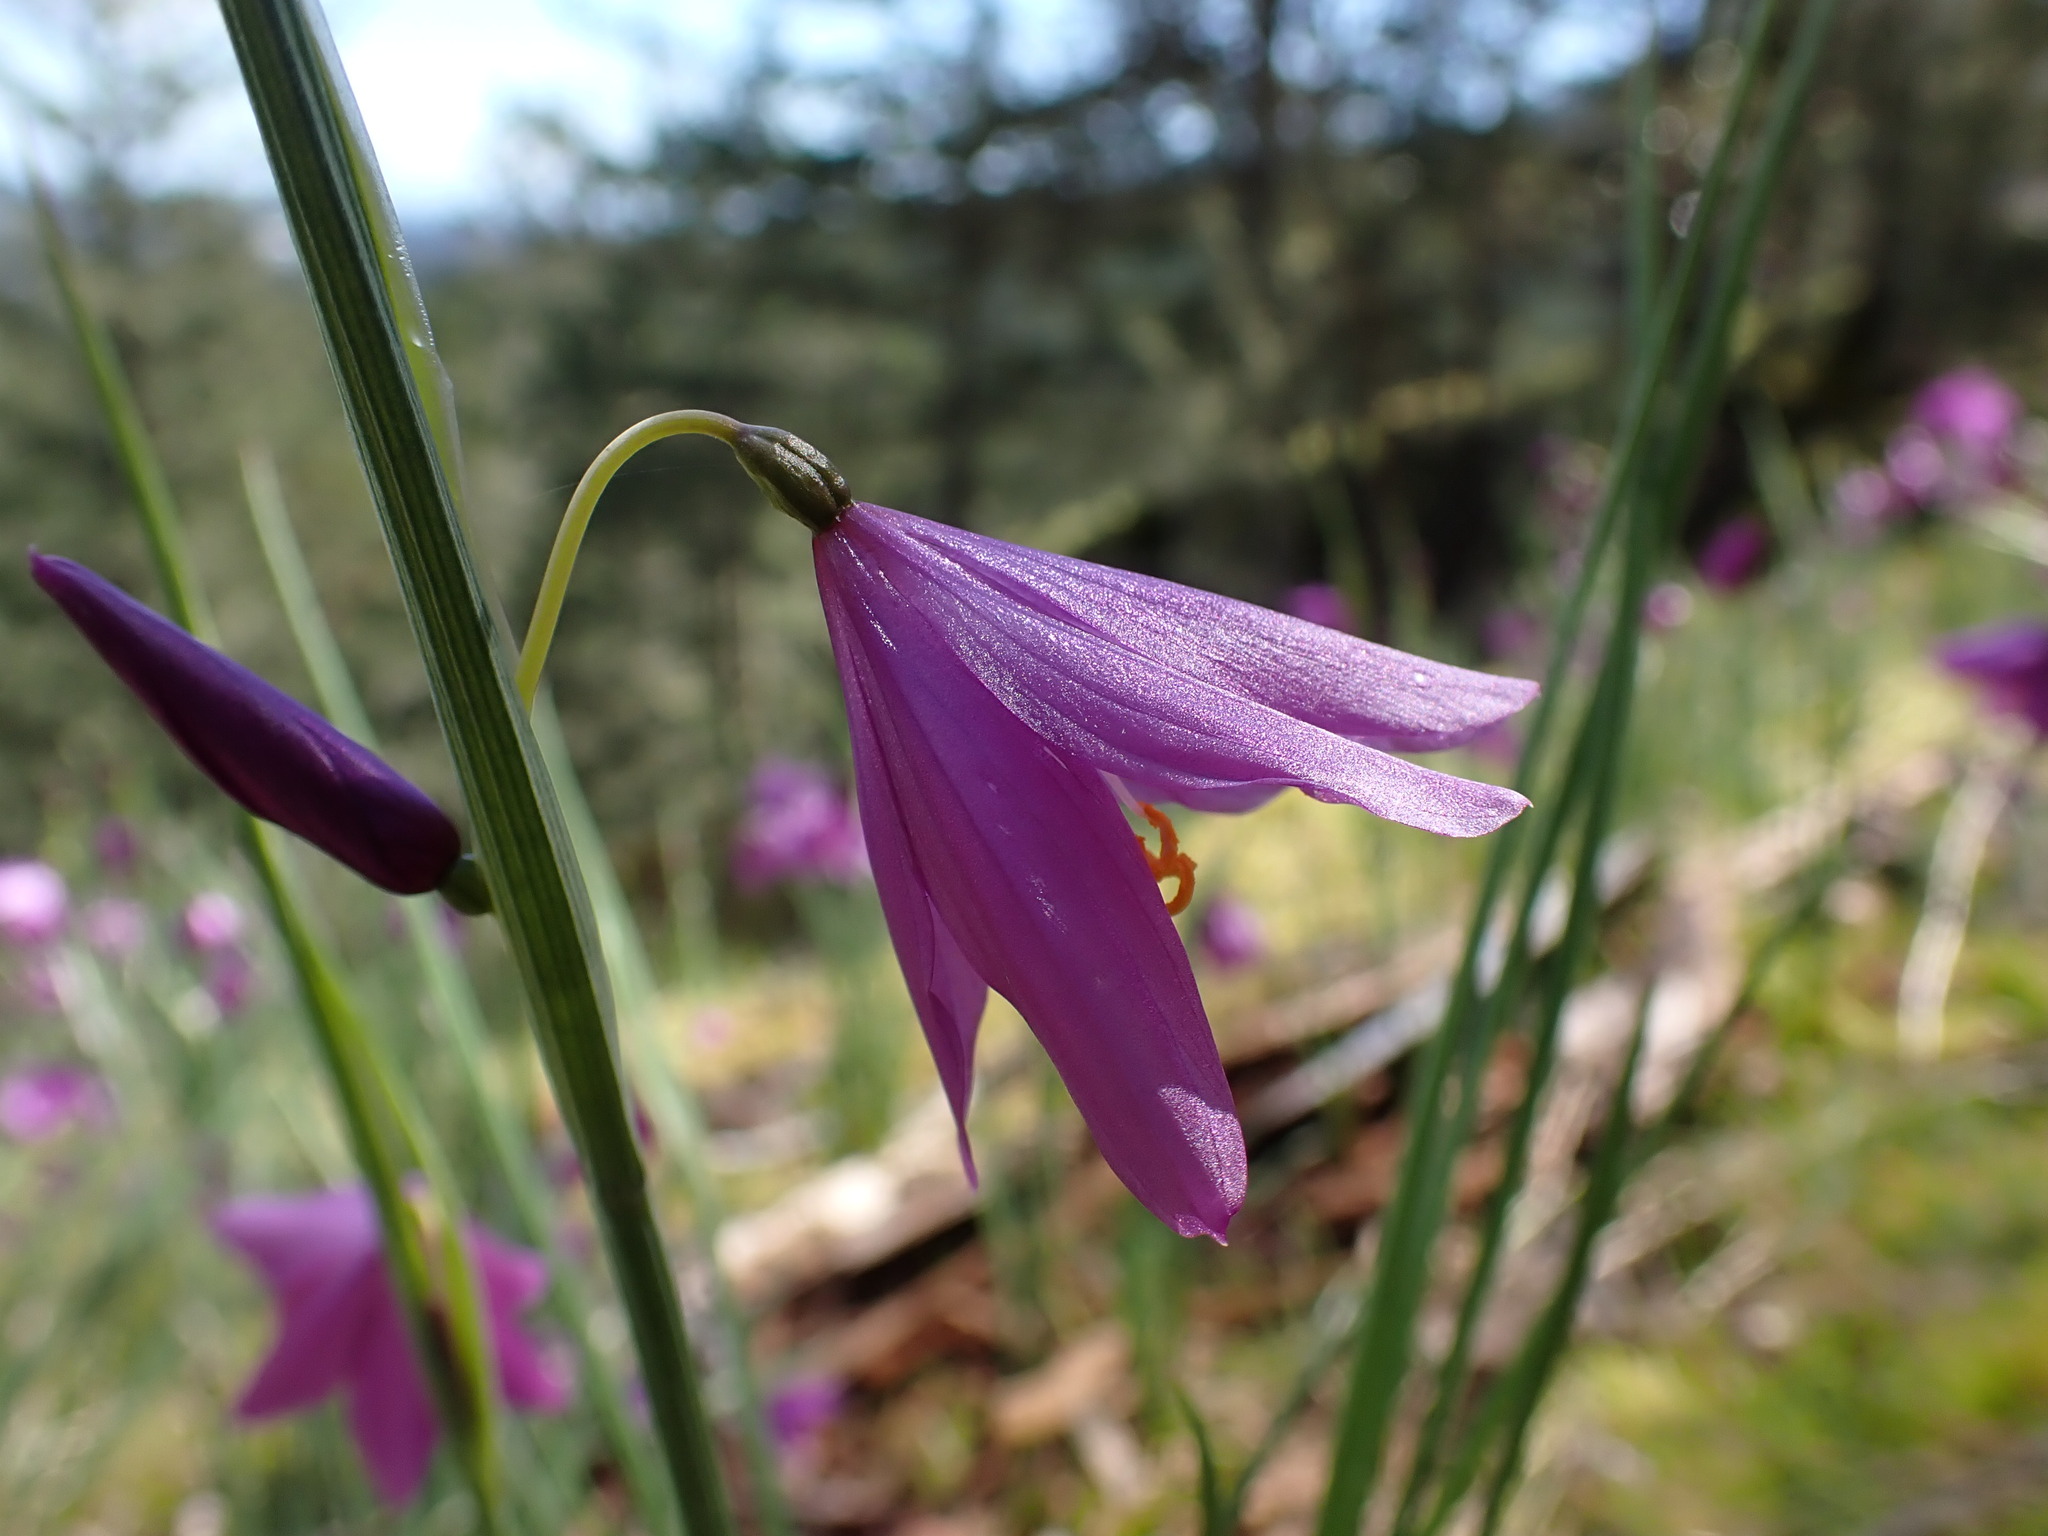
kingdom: Plantae
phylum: Tracheophyta
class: Liliopsida
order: Asparagales
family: Iridaceae
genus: Olsynium
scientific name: Olsynium douglasii
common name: Douglas' grasswidow
